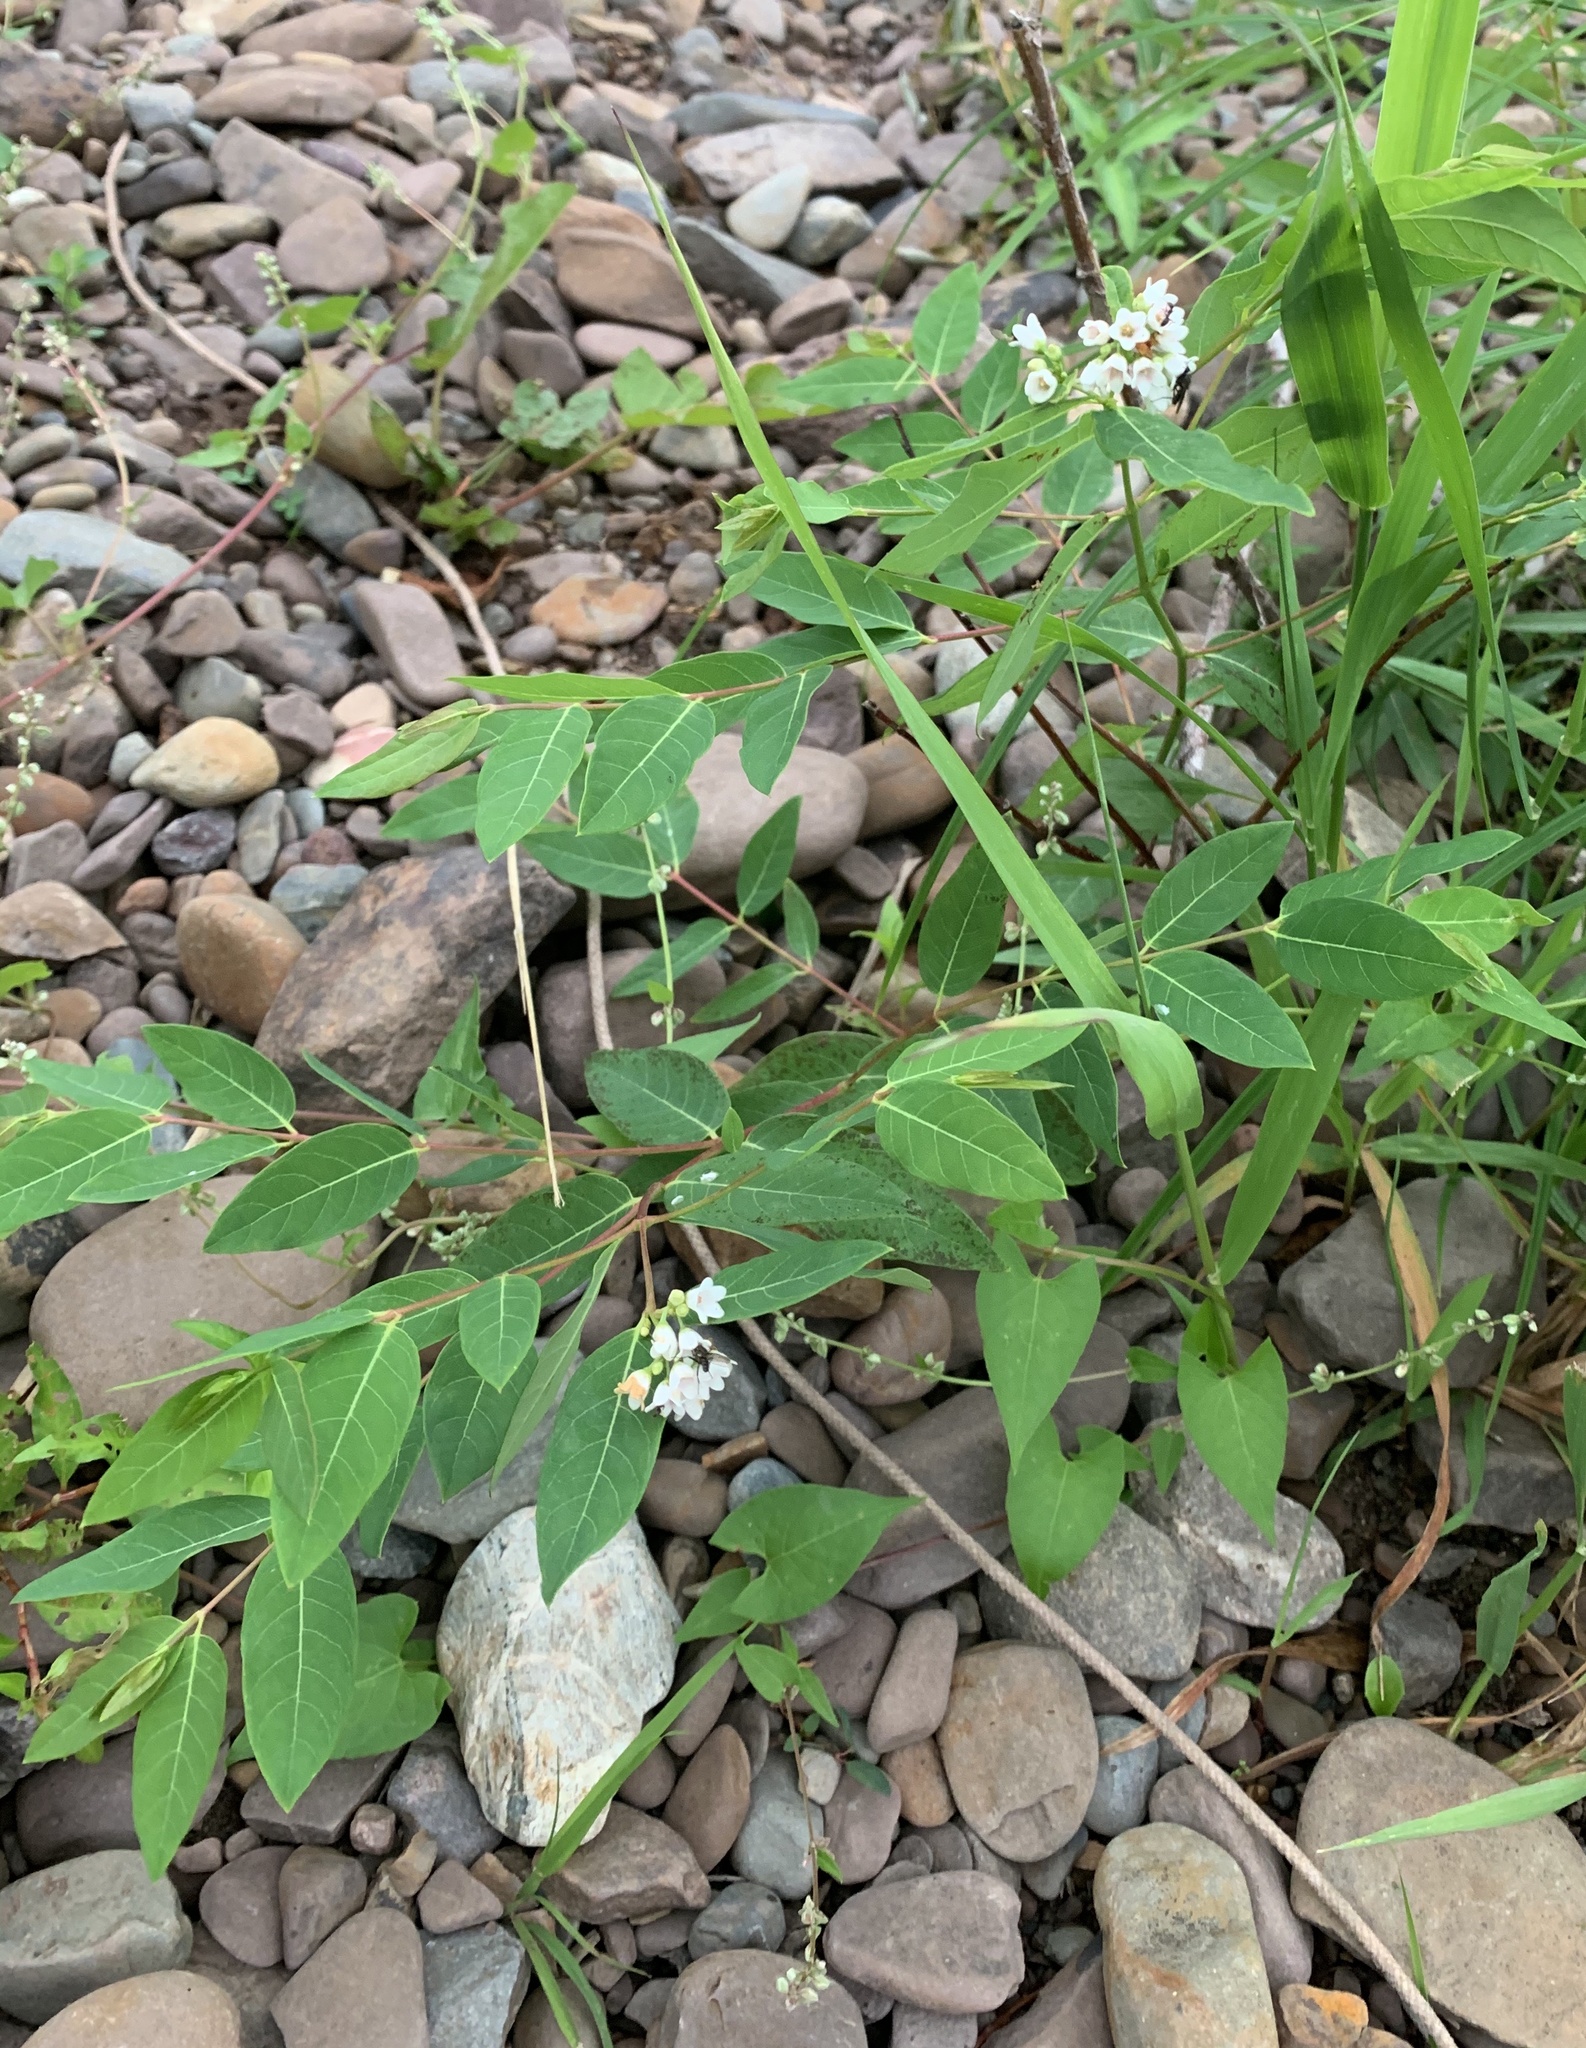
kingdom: Plantae
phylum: Tracheophyta
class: Magnoliopsida
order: Gentianales
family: Apocynaceae
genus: Apocynum
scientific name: Apocynum floribundum
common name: Hybrid dogbane
